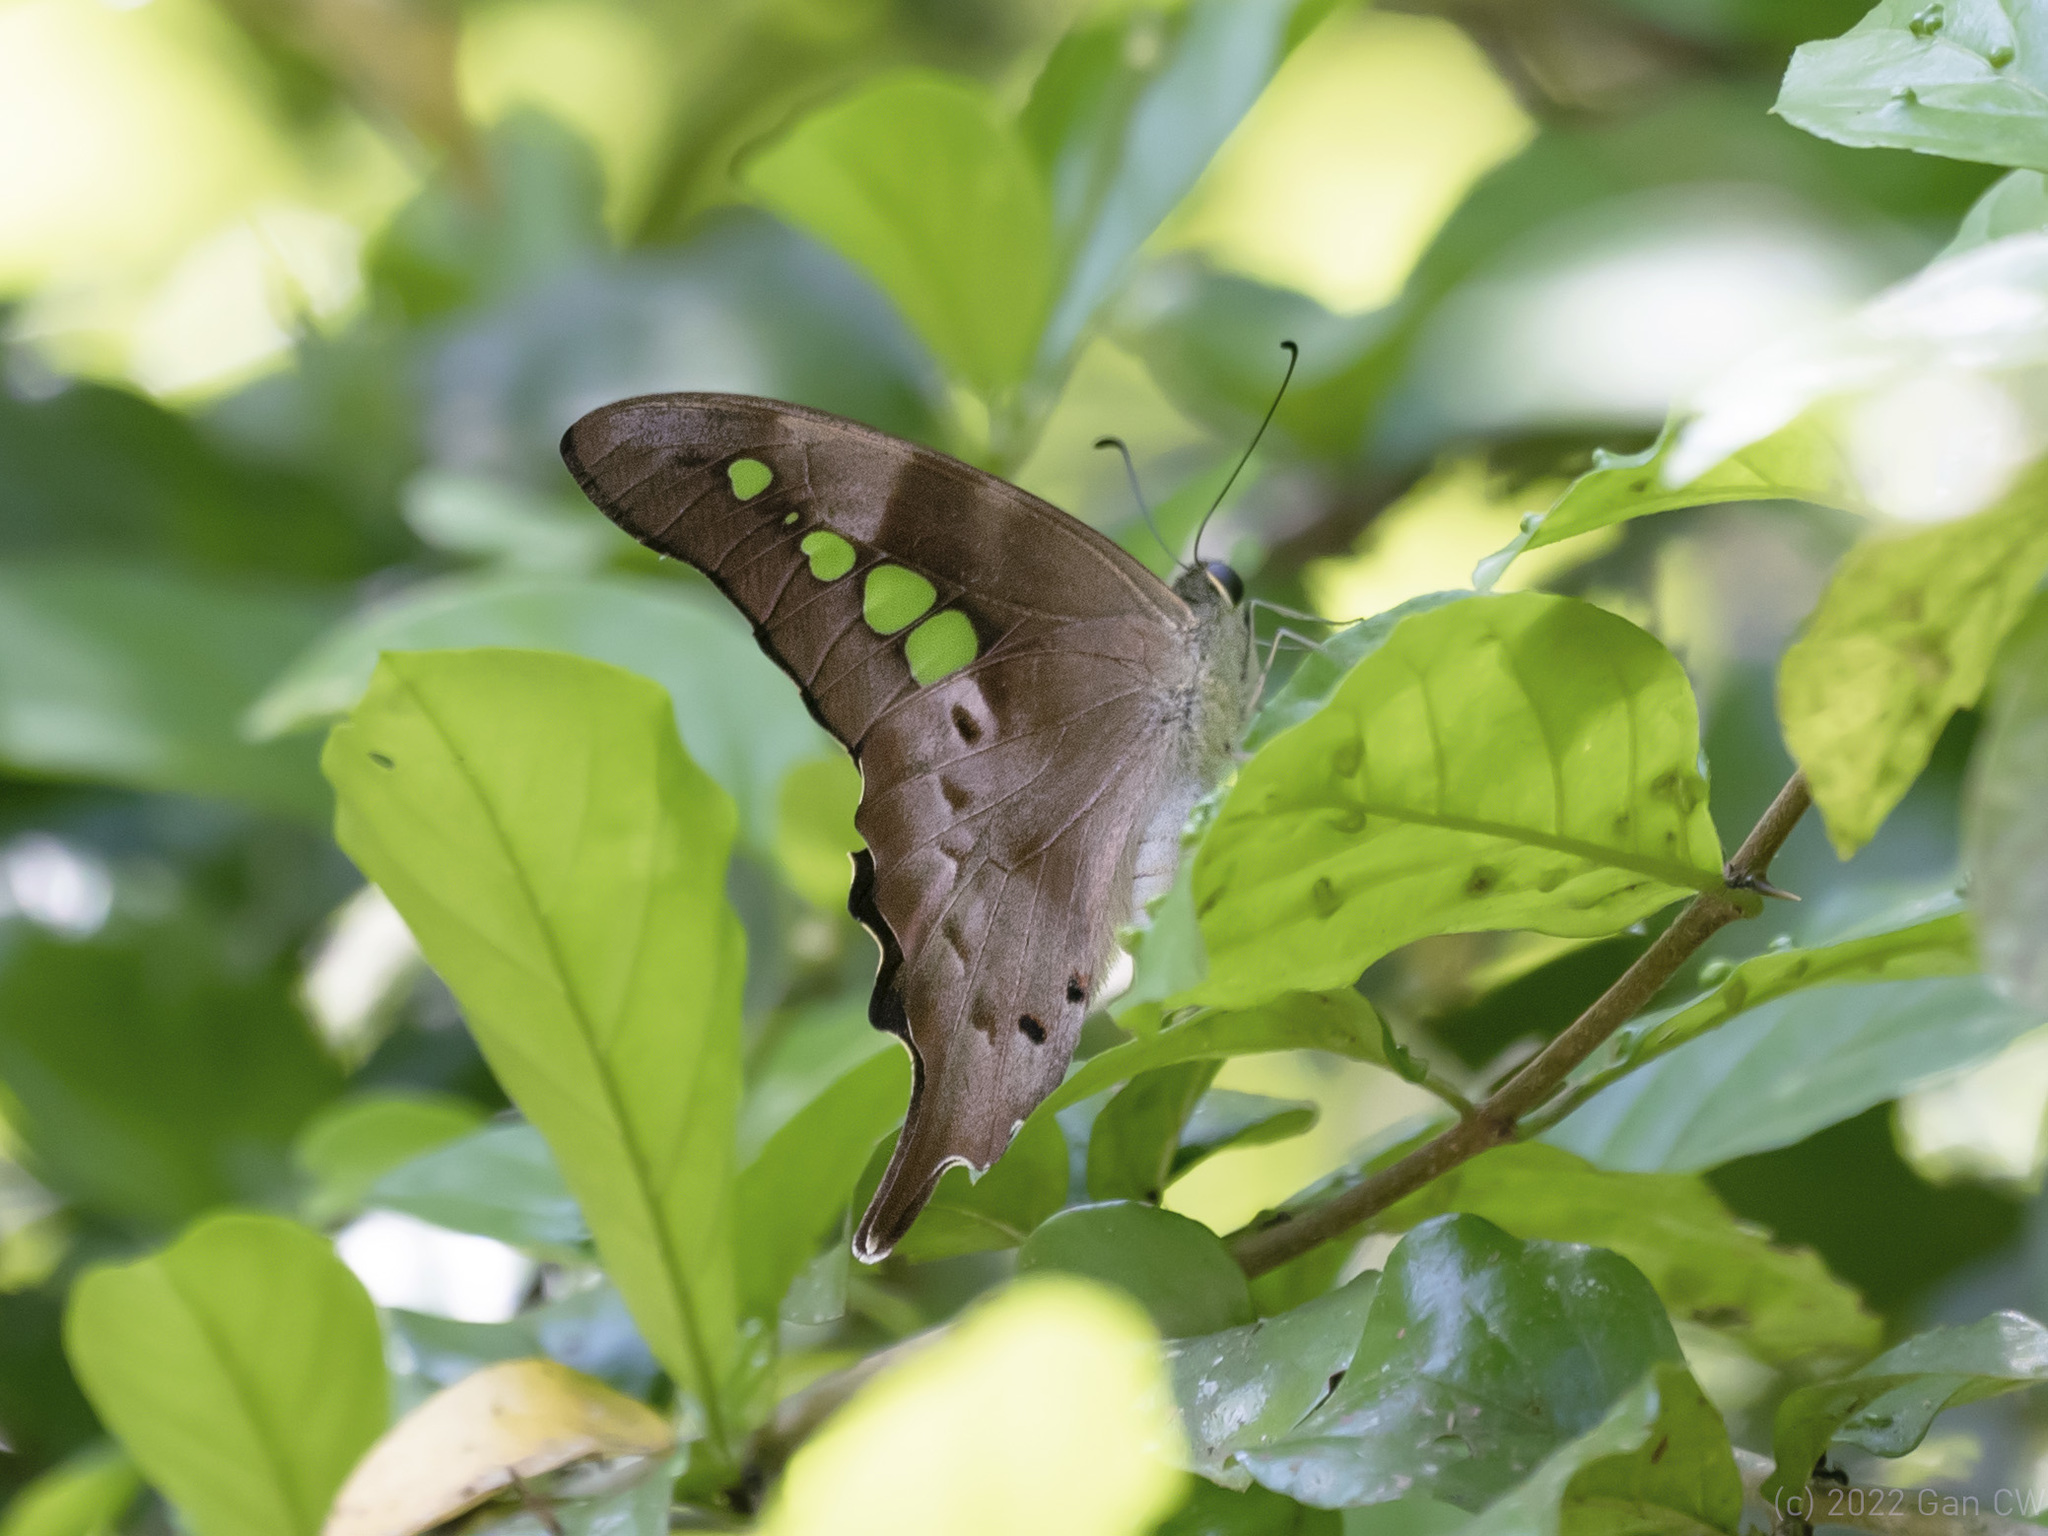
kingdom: Animalia
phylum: Arthropoda
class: Insecta
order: Lepidoptera
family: Papilionidae
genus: Graphium
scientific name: Graphium empedovana
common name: Malayan yellowbottle
